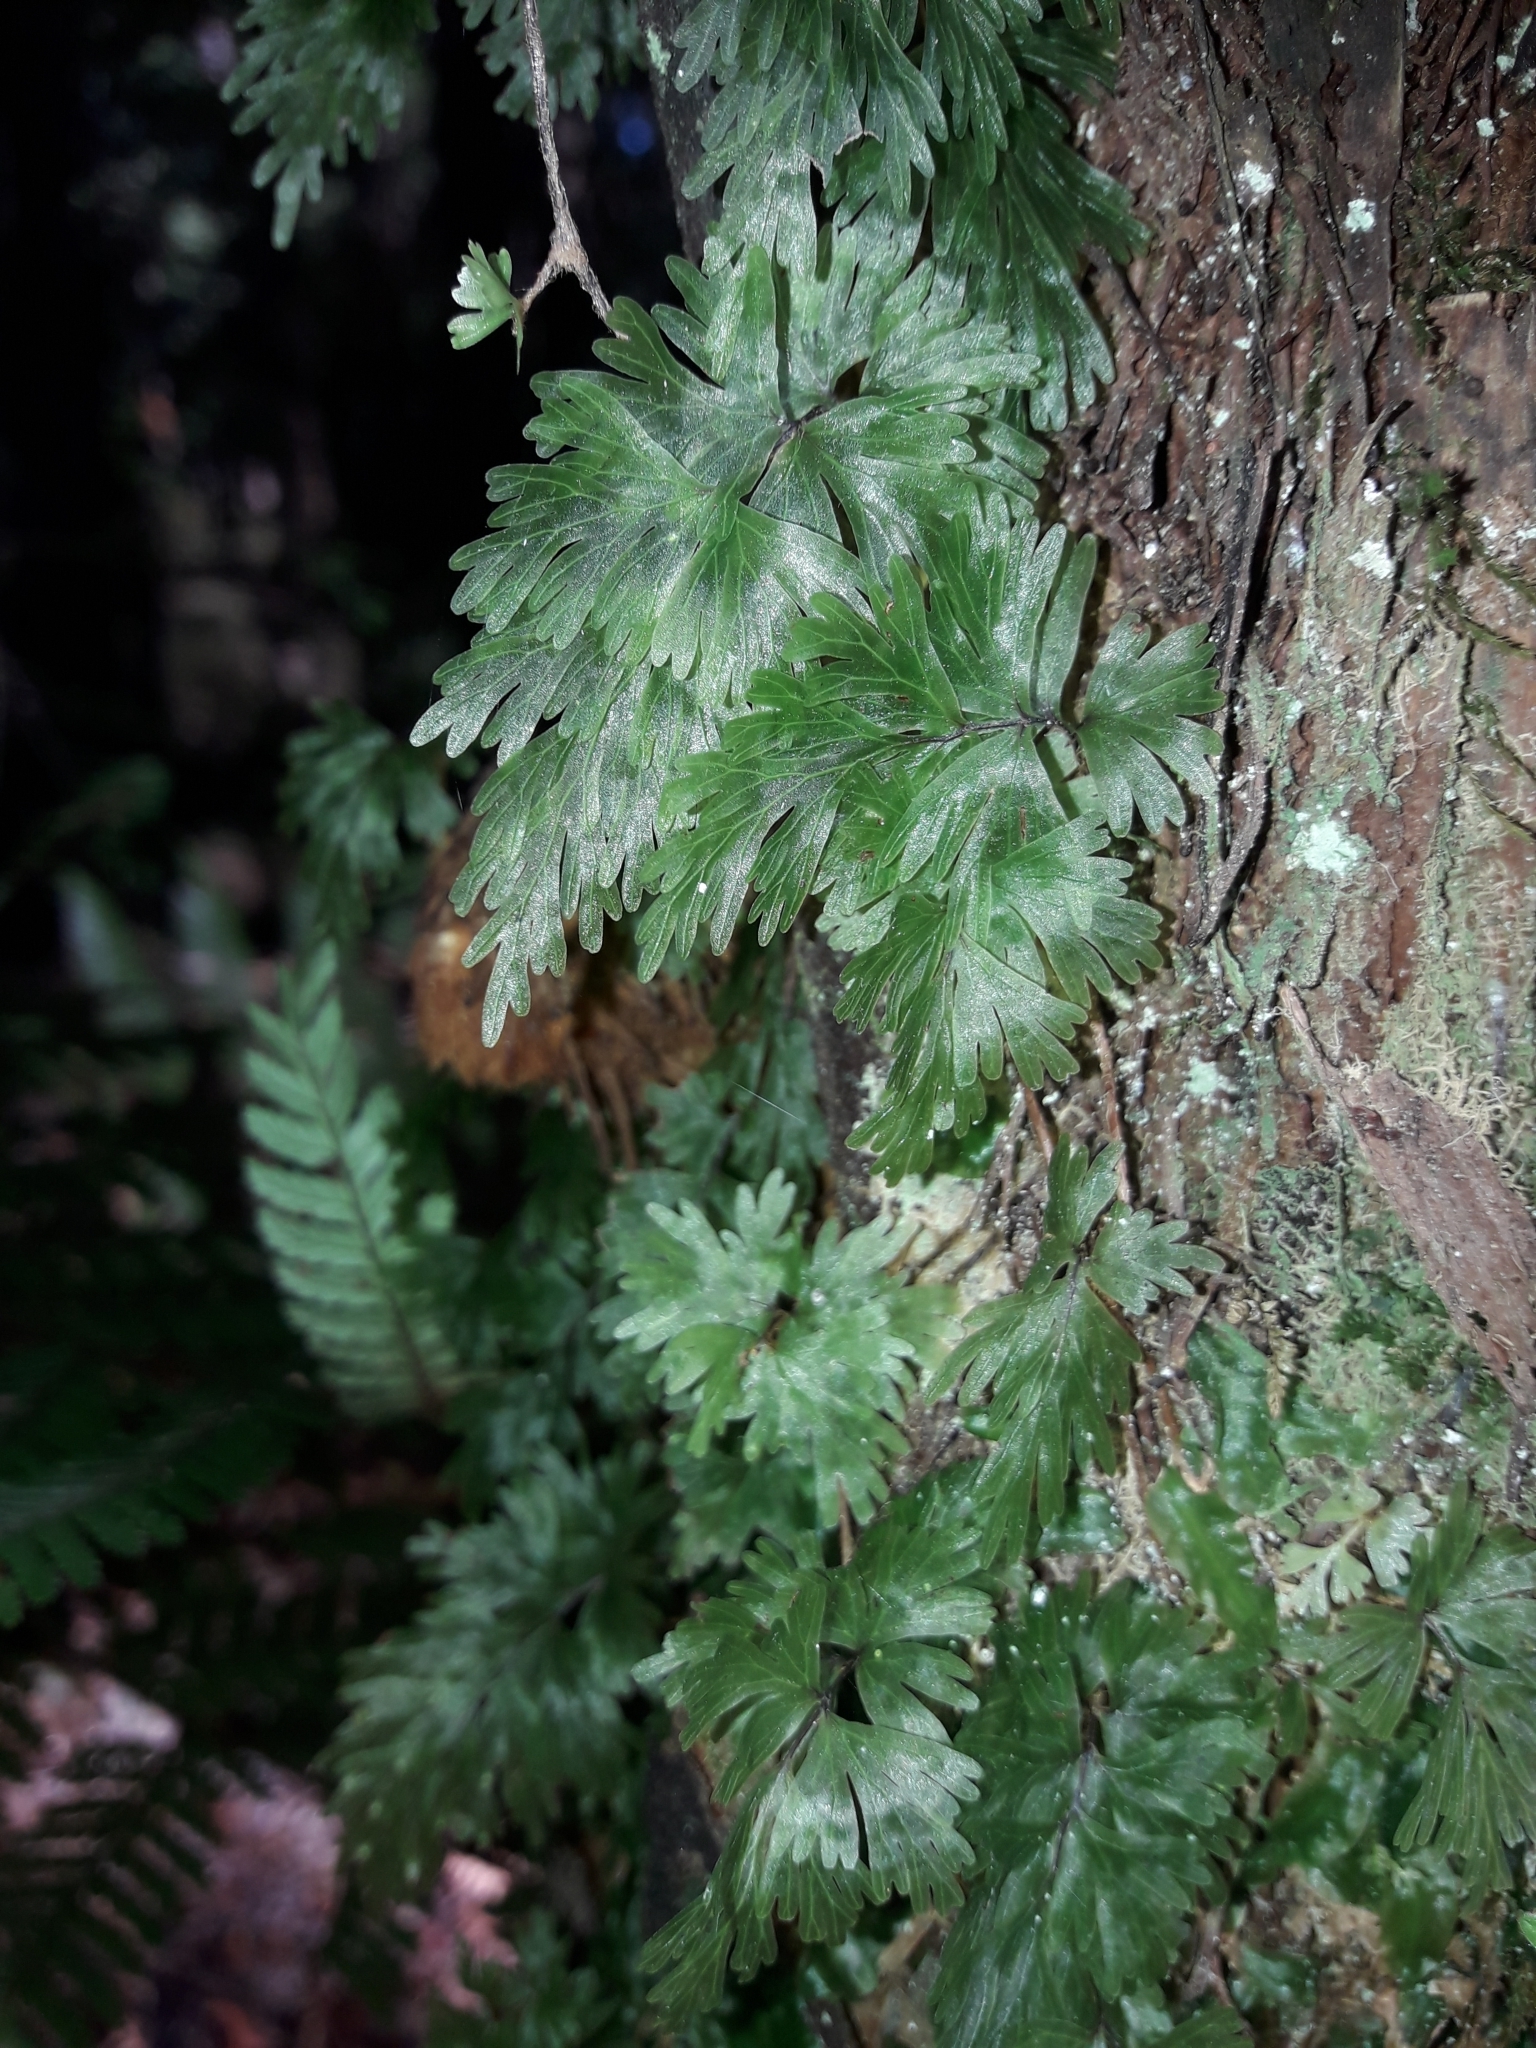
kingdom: Plantae
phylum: Tracheophyta
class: Polypodiopsida
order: Hymenophyllales
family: Hymenophyllaceae
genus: Hymenophyllum
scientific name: Hymenophyllum flabellatum
